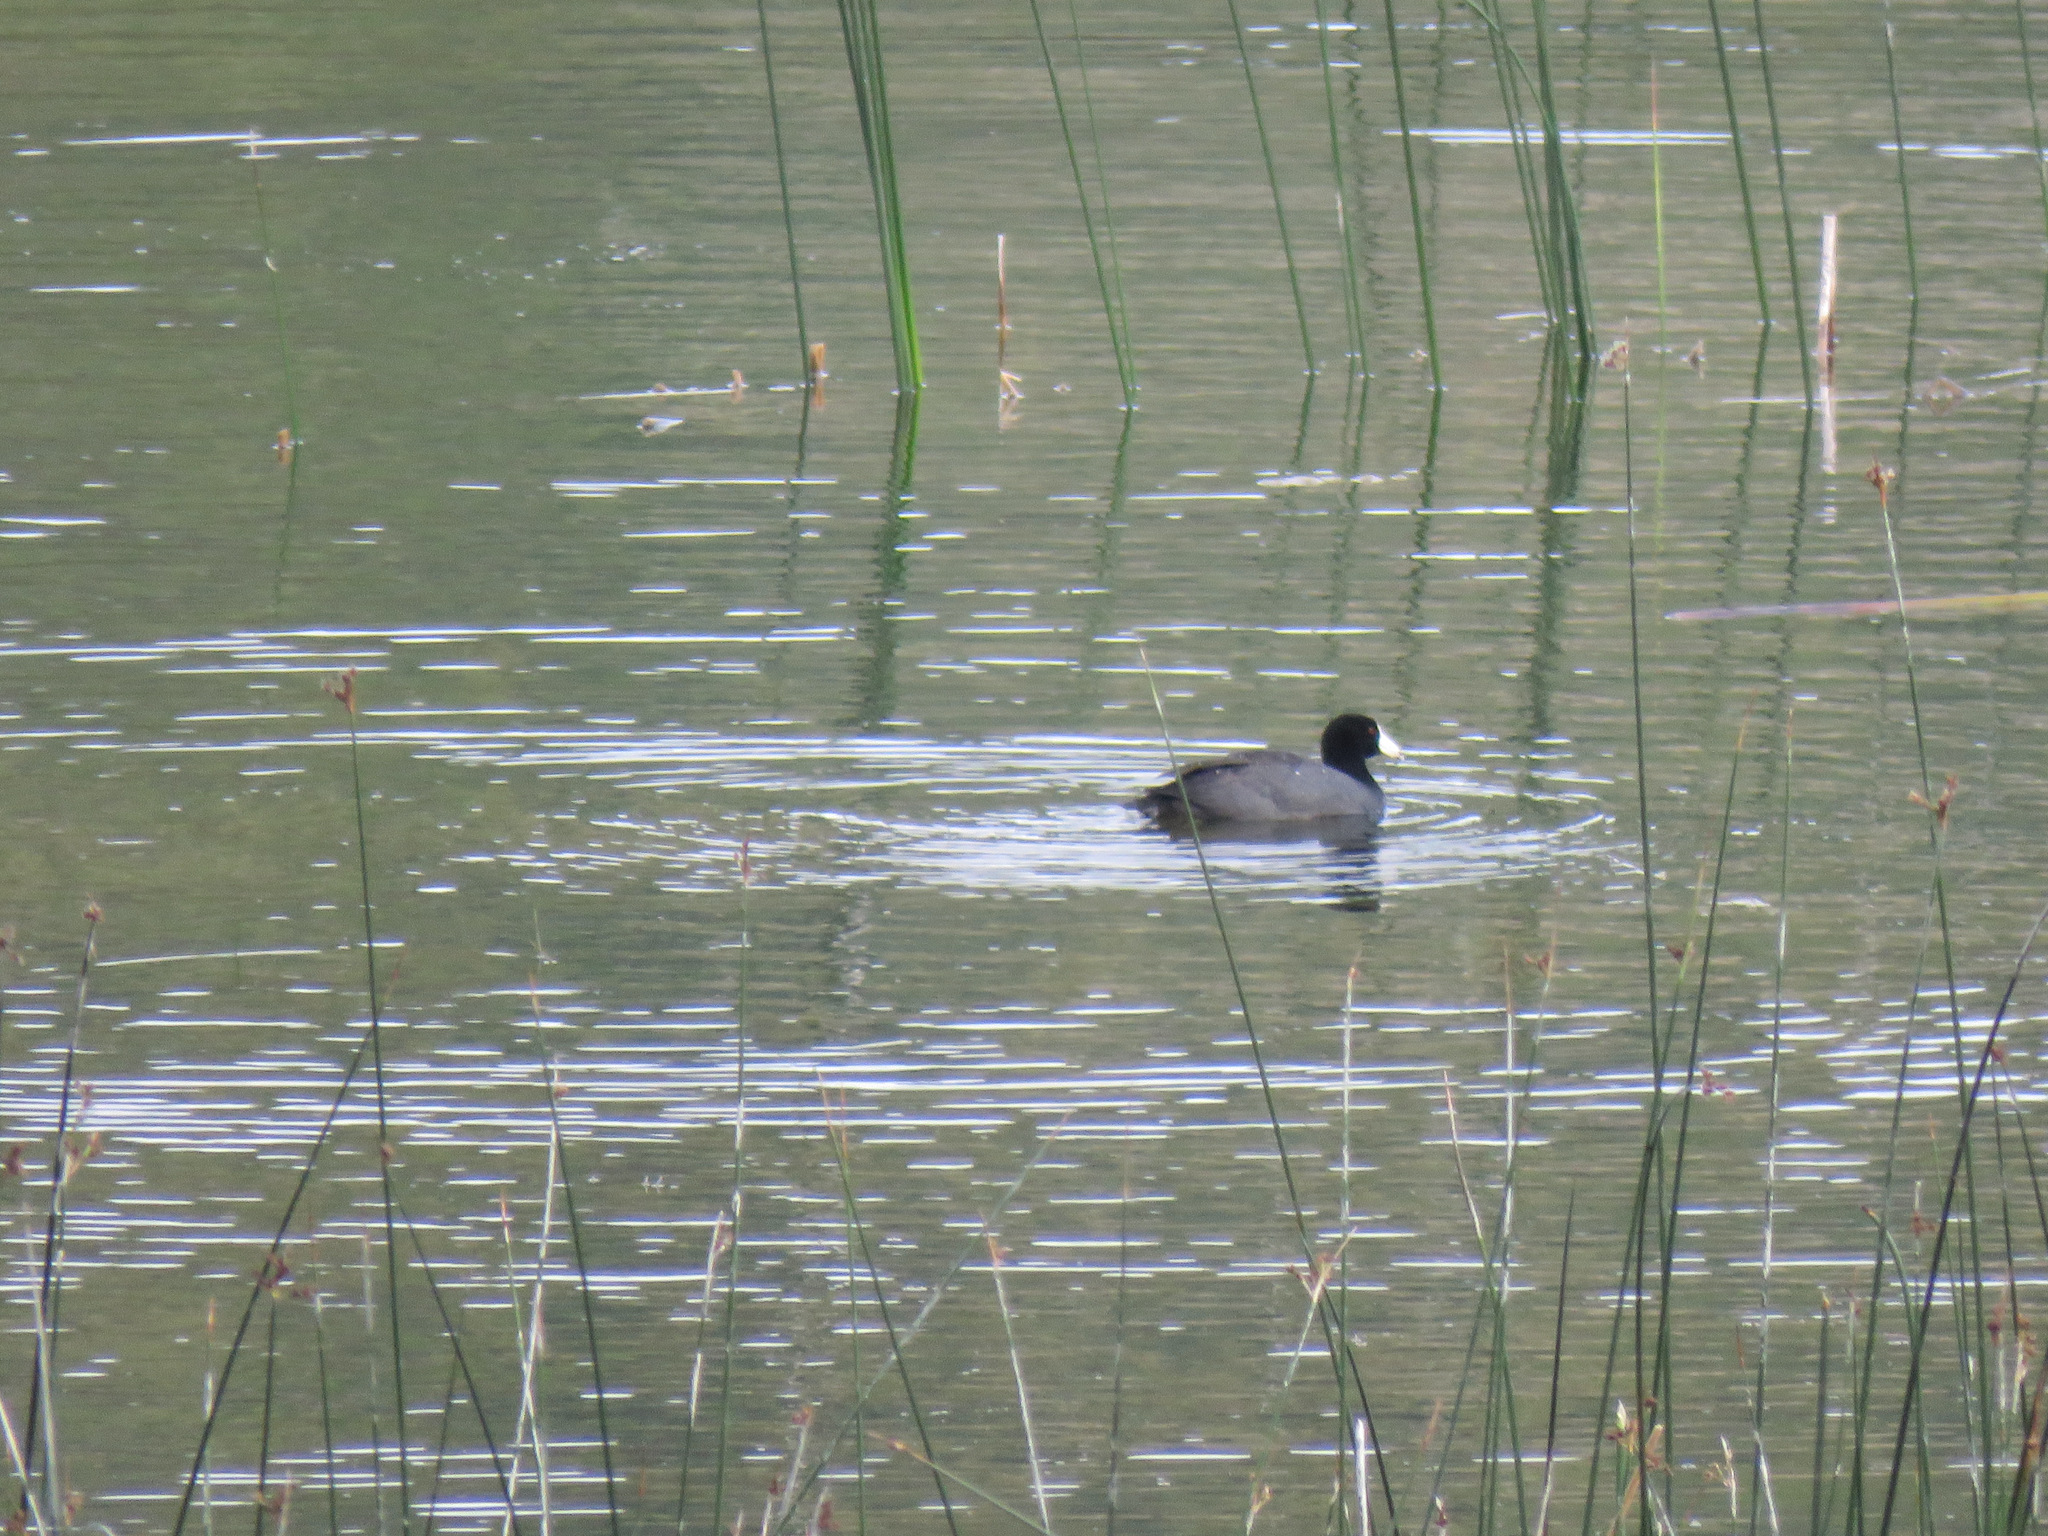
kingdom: Animalia
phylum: Chordata
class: Aves
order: Gruiformes
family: Rallidae
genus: Fulica
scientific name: Fulica americana
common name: American coot
